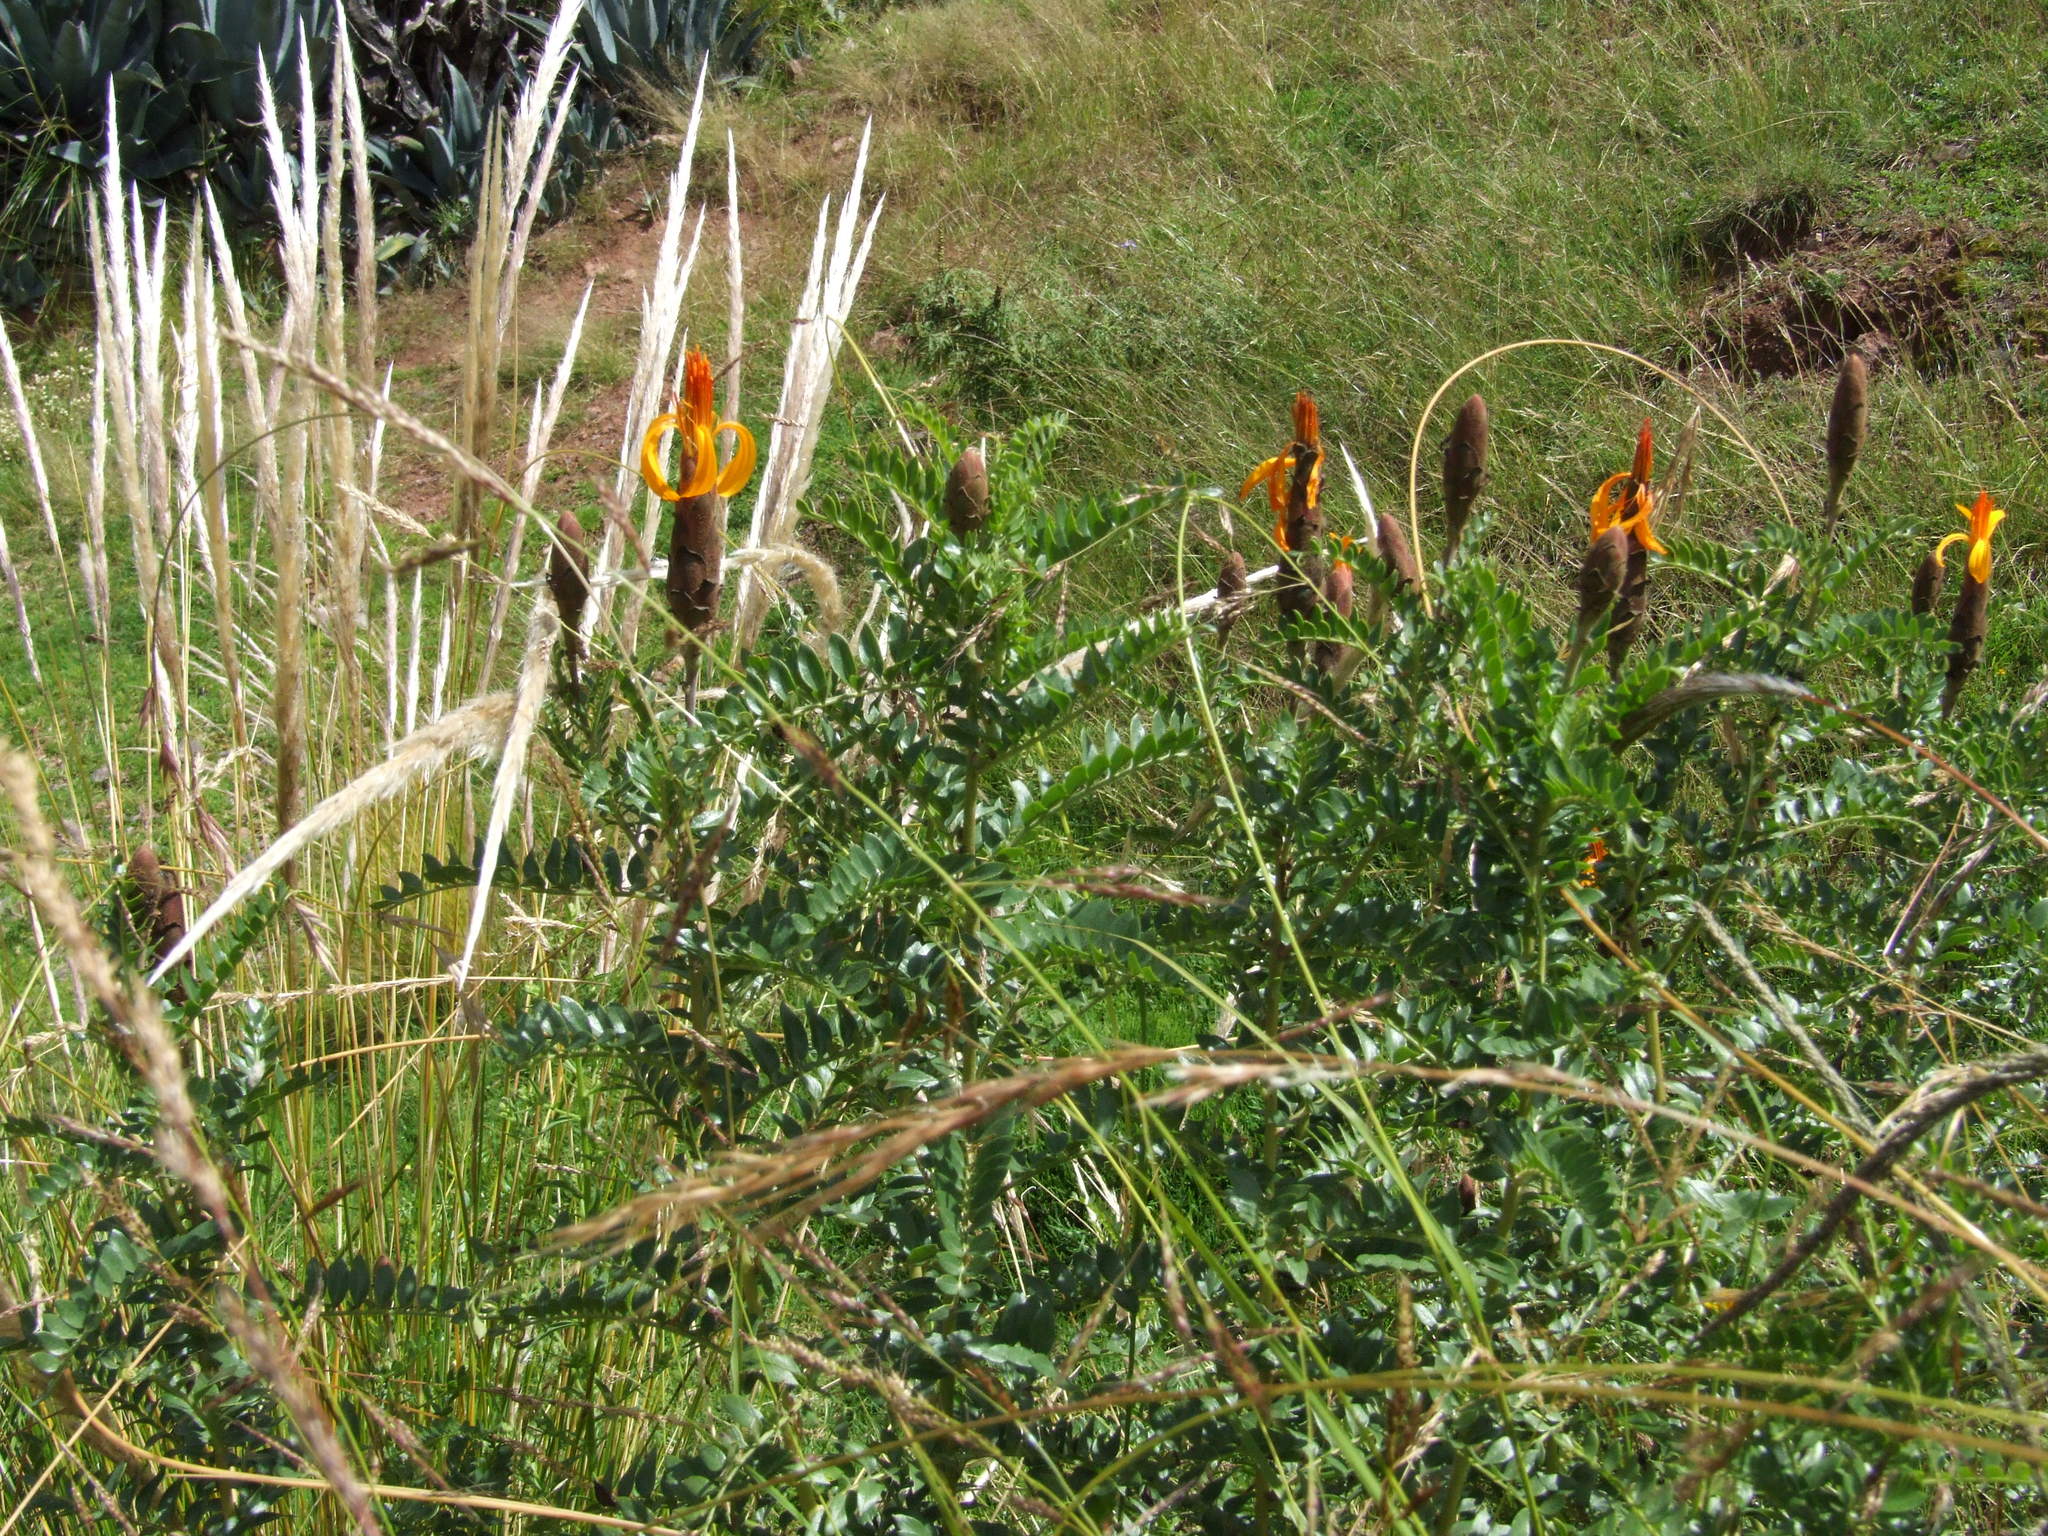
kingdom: Plantae
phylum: Tracheophyta
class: Magnoliopsida
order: Asterales
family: Asteraceae
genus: Mutisia
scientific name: Mutisia acuminata
